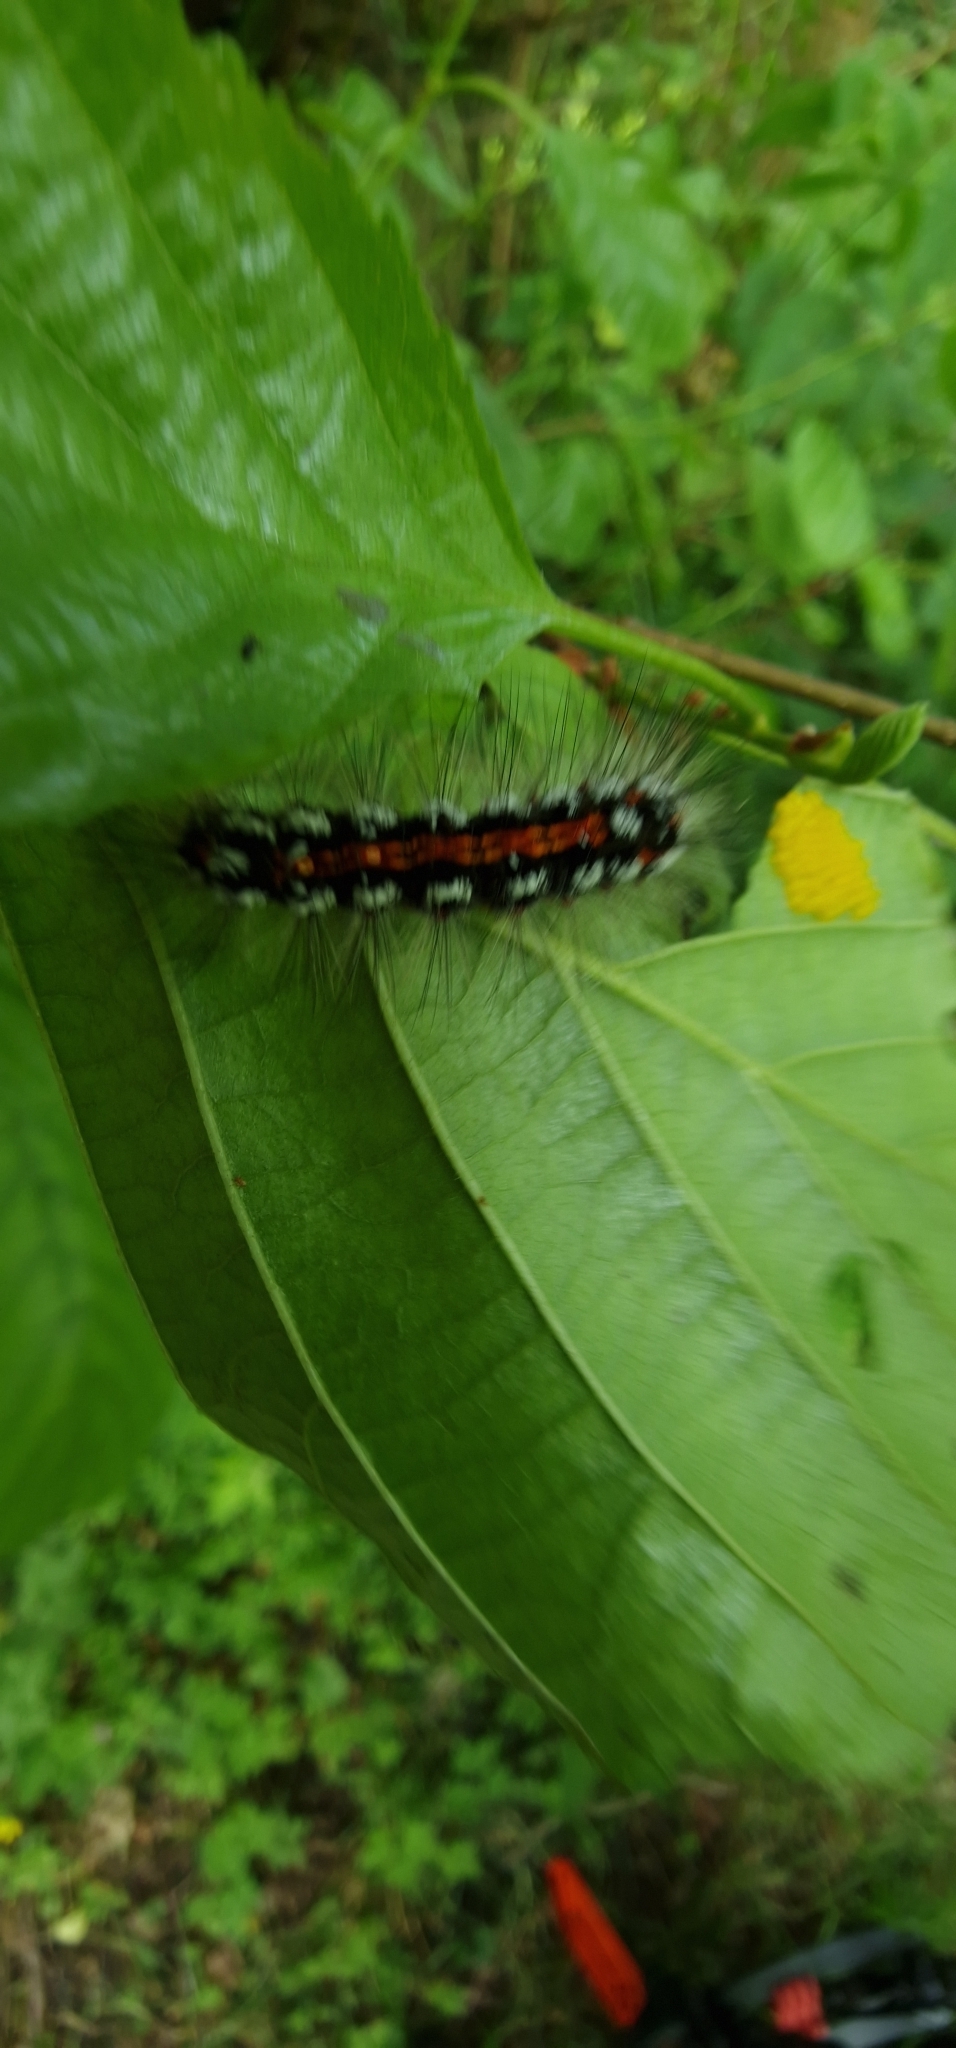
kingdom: Animalia
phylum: Arthropoda
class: Insecta
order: Lepidoptera
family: Erebidae
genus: Sphrageidus
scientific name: Sphrageidus similis
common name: Yellow-tail
